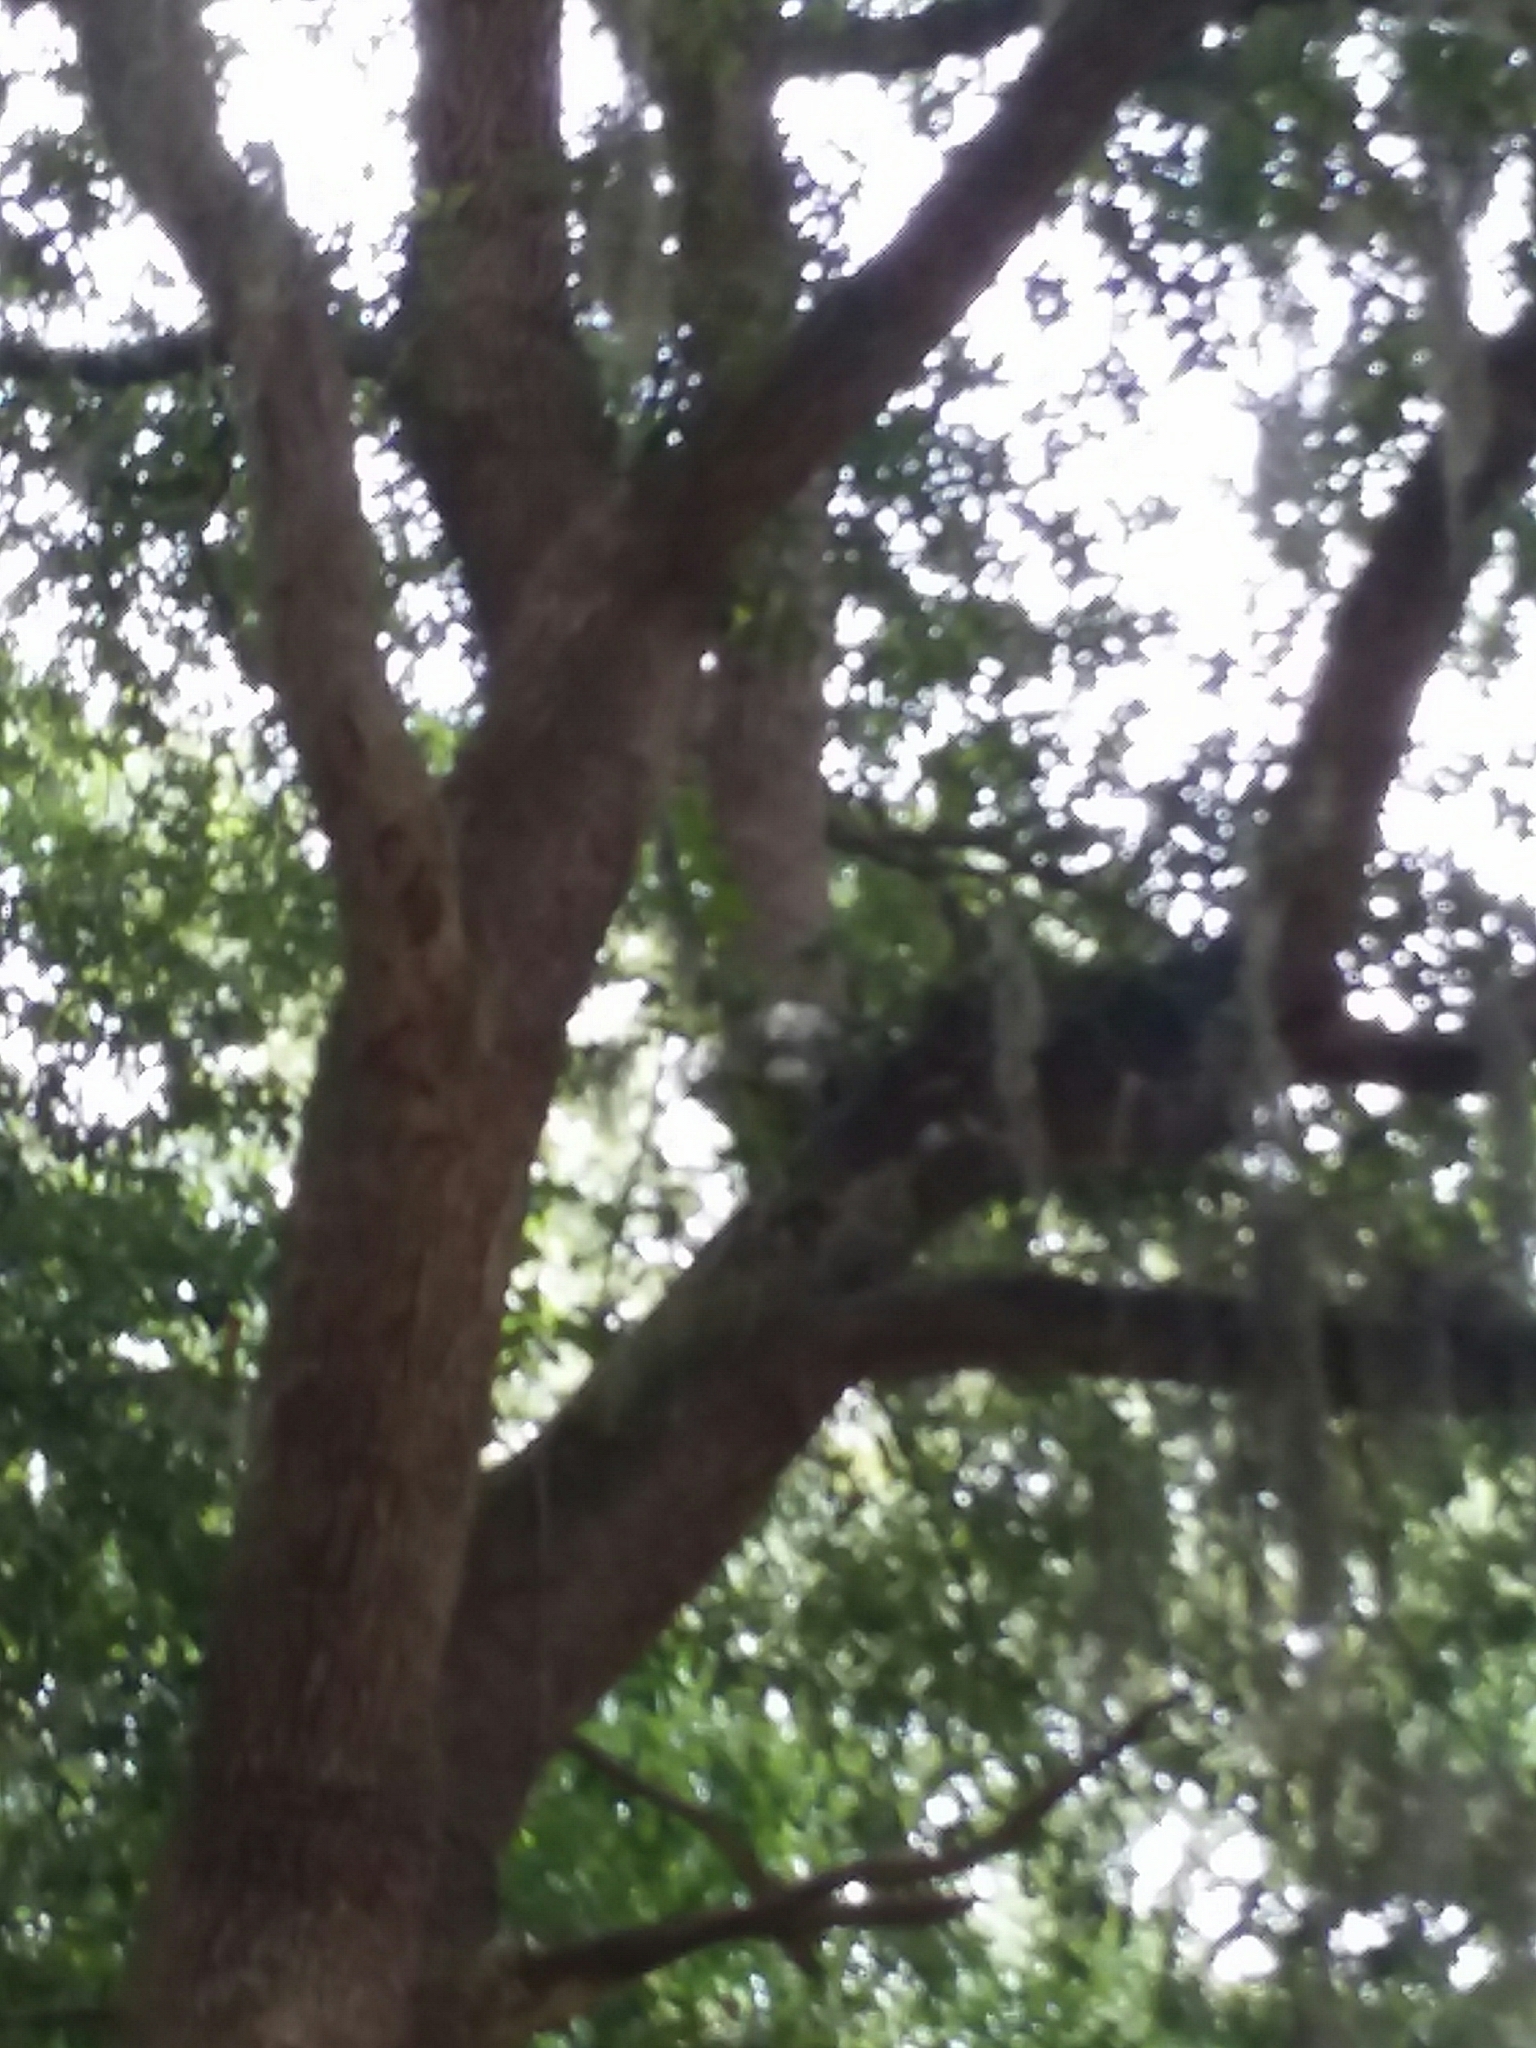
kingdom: Animalia
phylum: Chordata
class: Aves
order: Accipitriformes
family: Accipitridae
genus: Buteo
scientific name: Buteo jamaicensis
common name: Red-tailed hawk
